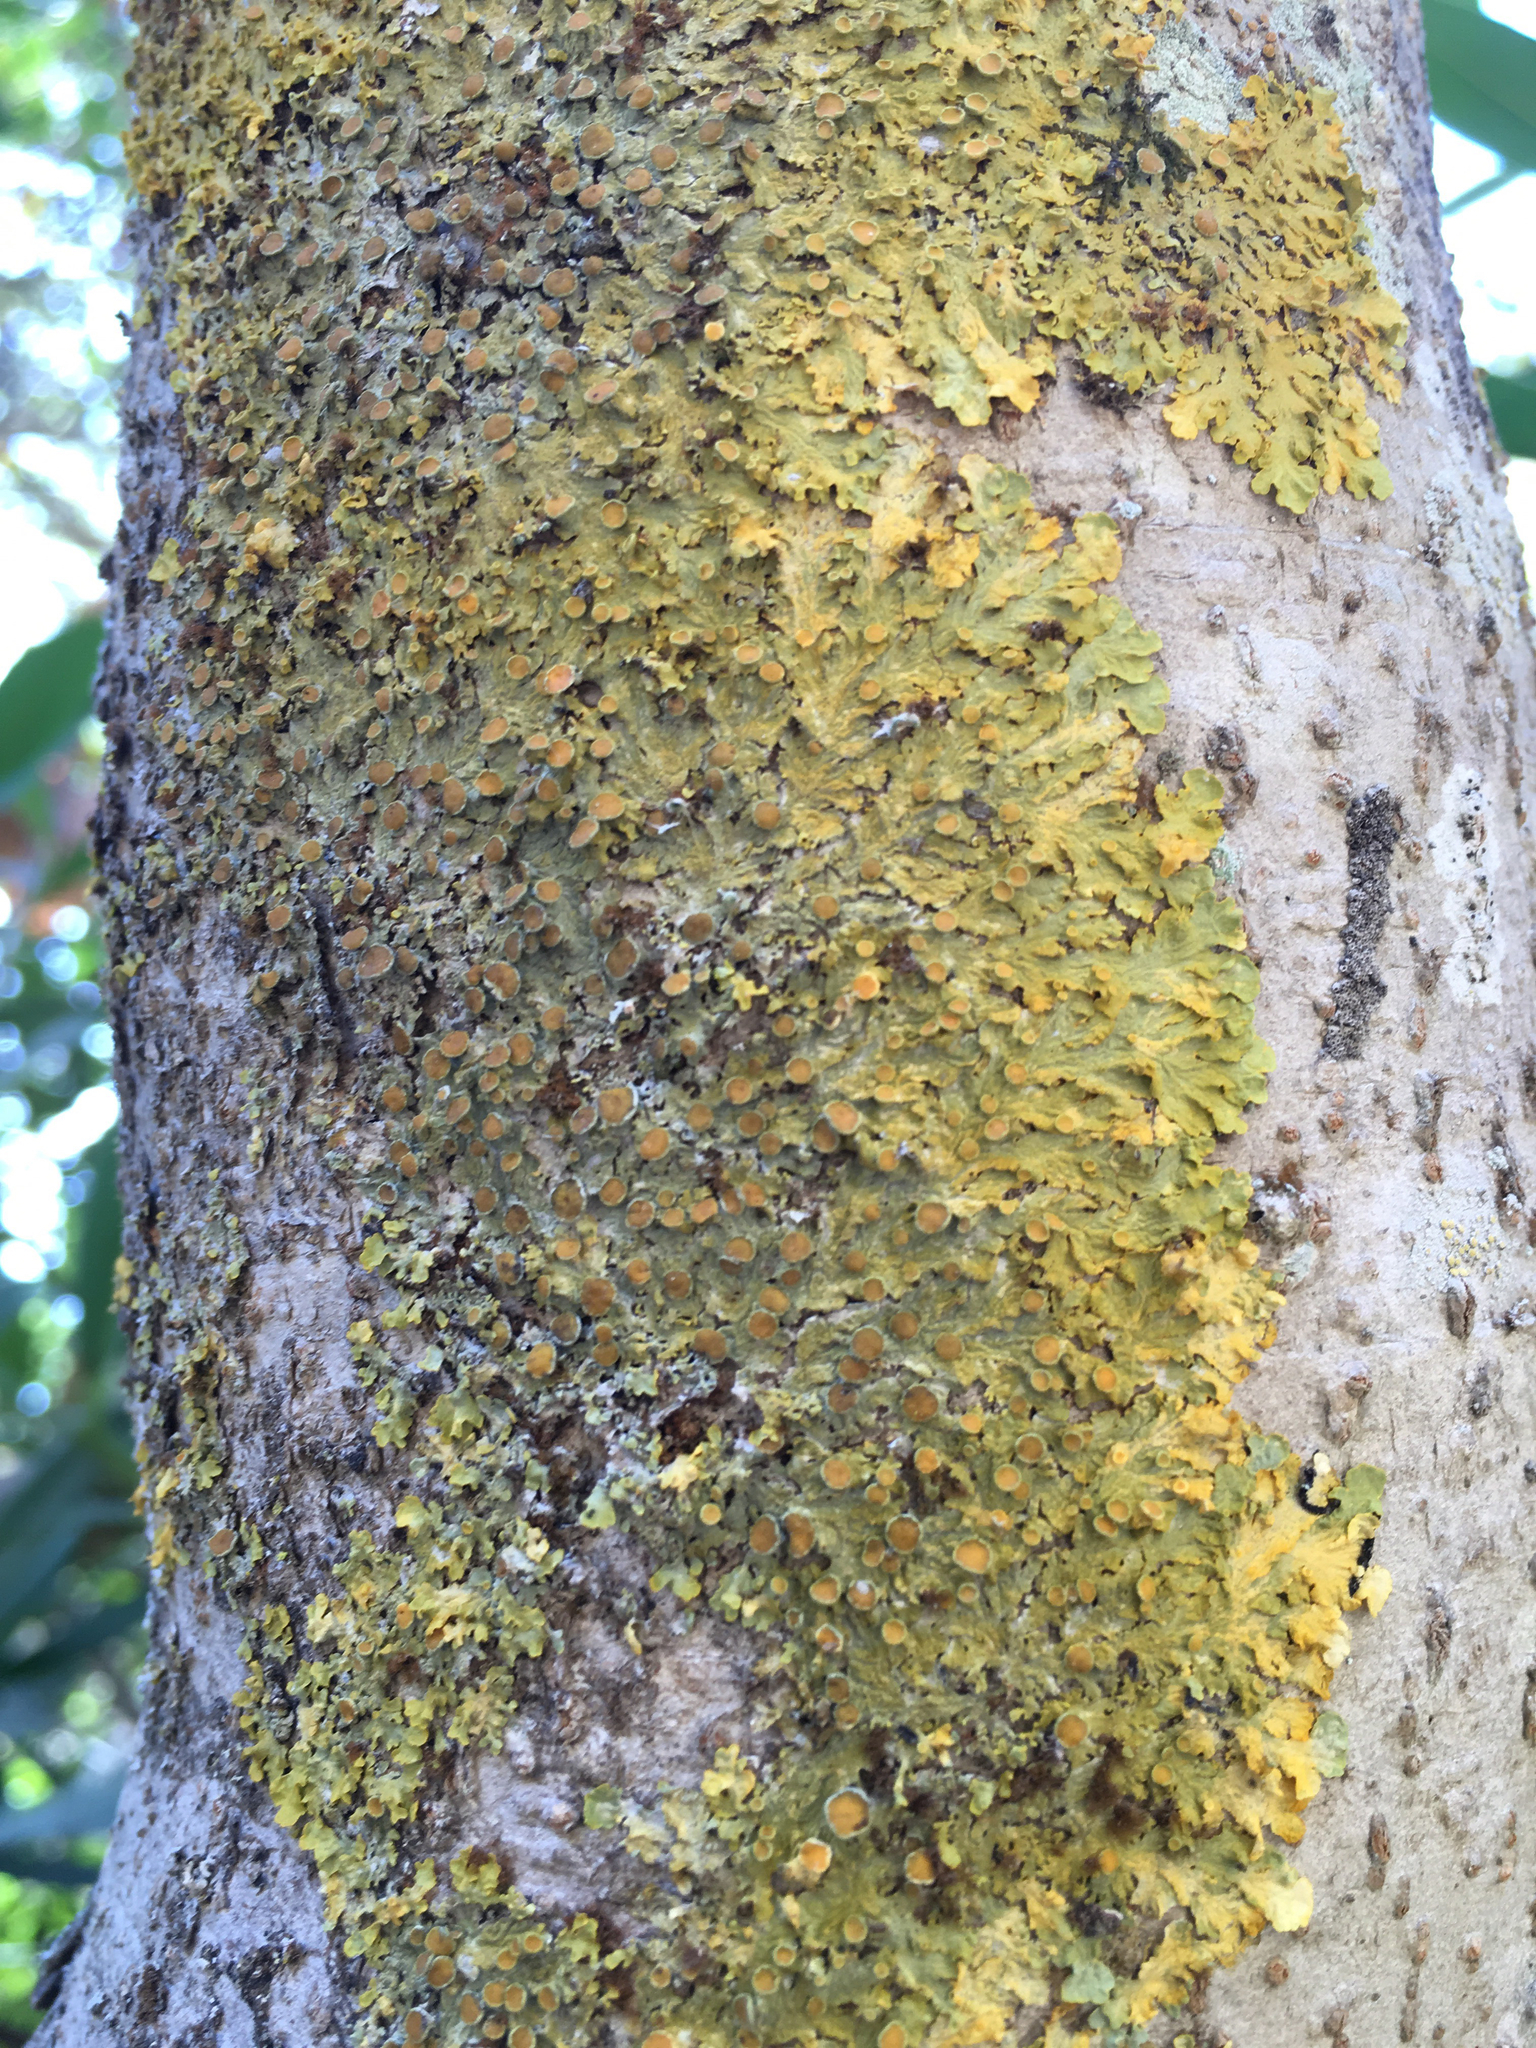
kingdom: Fungi
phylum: Ascomycota
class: Lecanoromycetes
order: Teloschistales
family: Teloschistaceae
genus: Xanthoria
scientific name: Xanthoria parietina
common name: Common orange lichen
